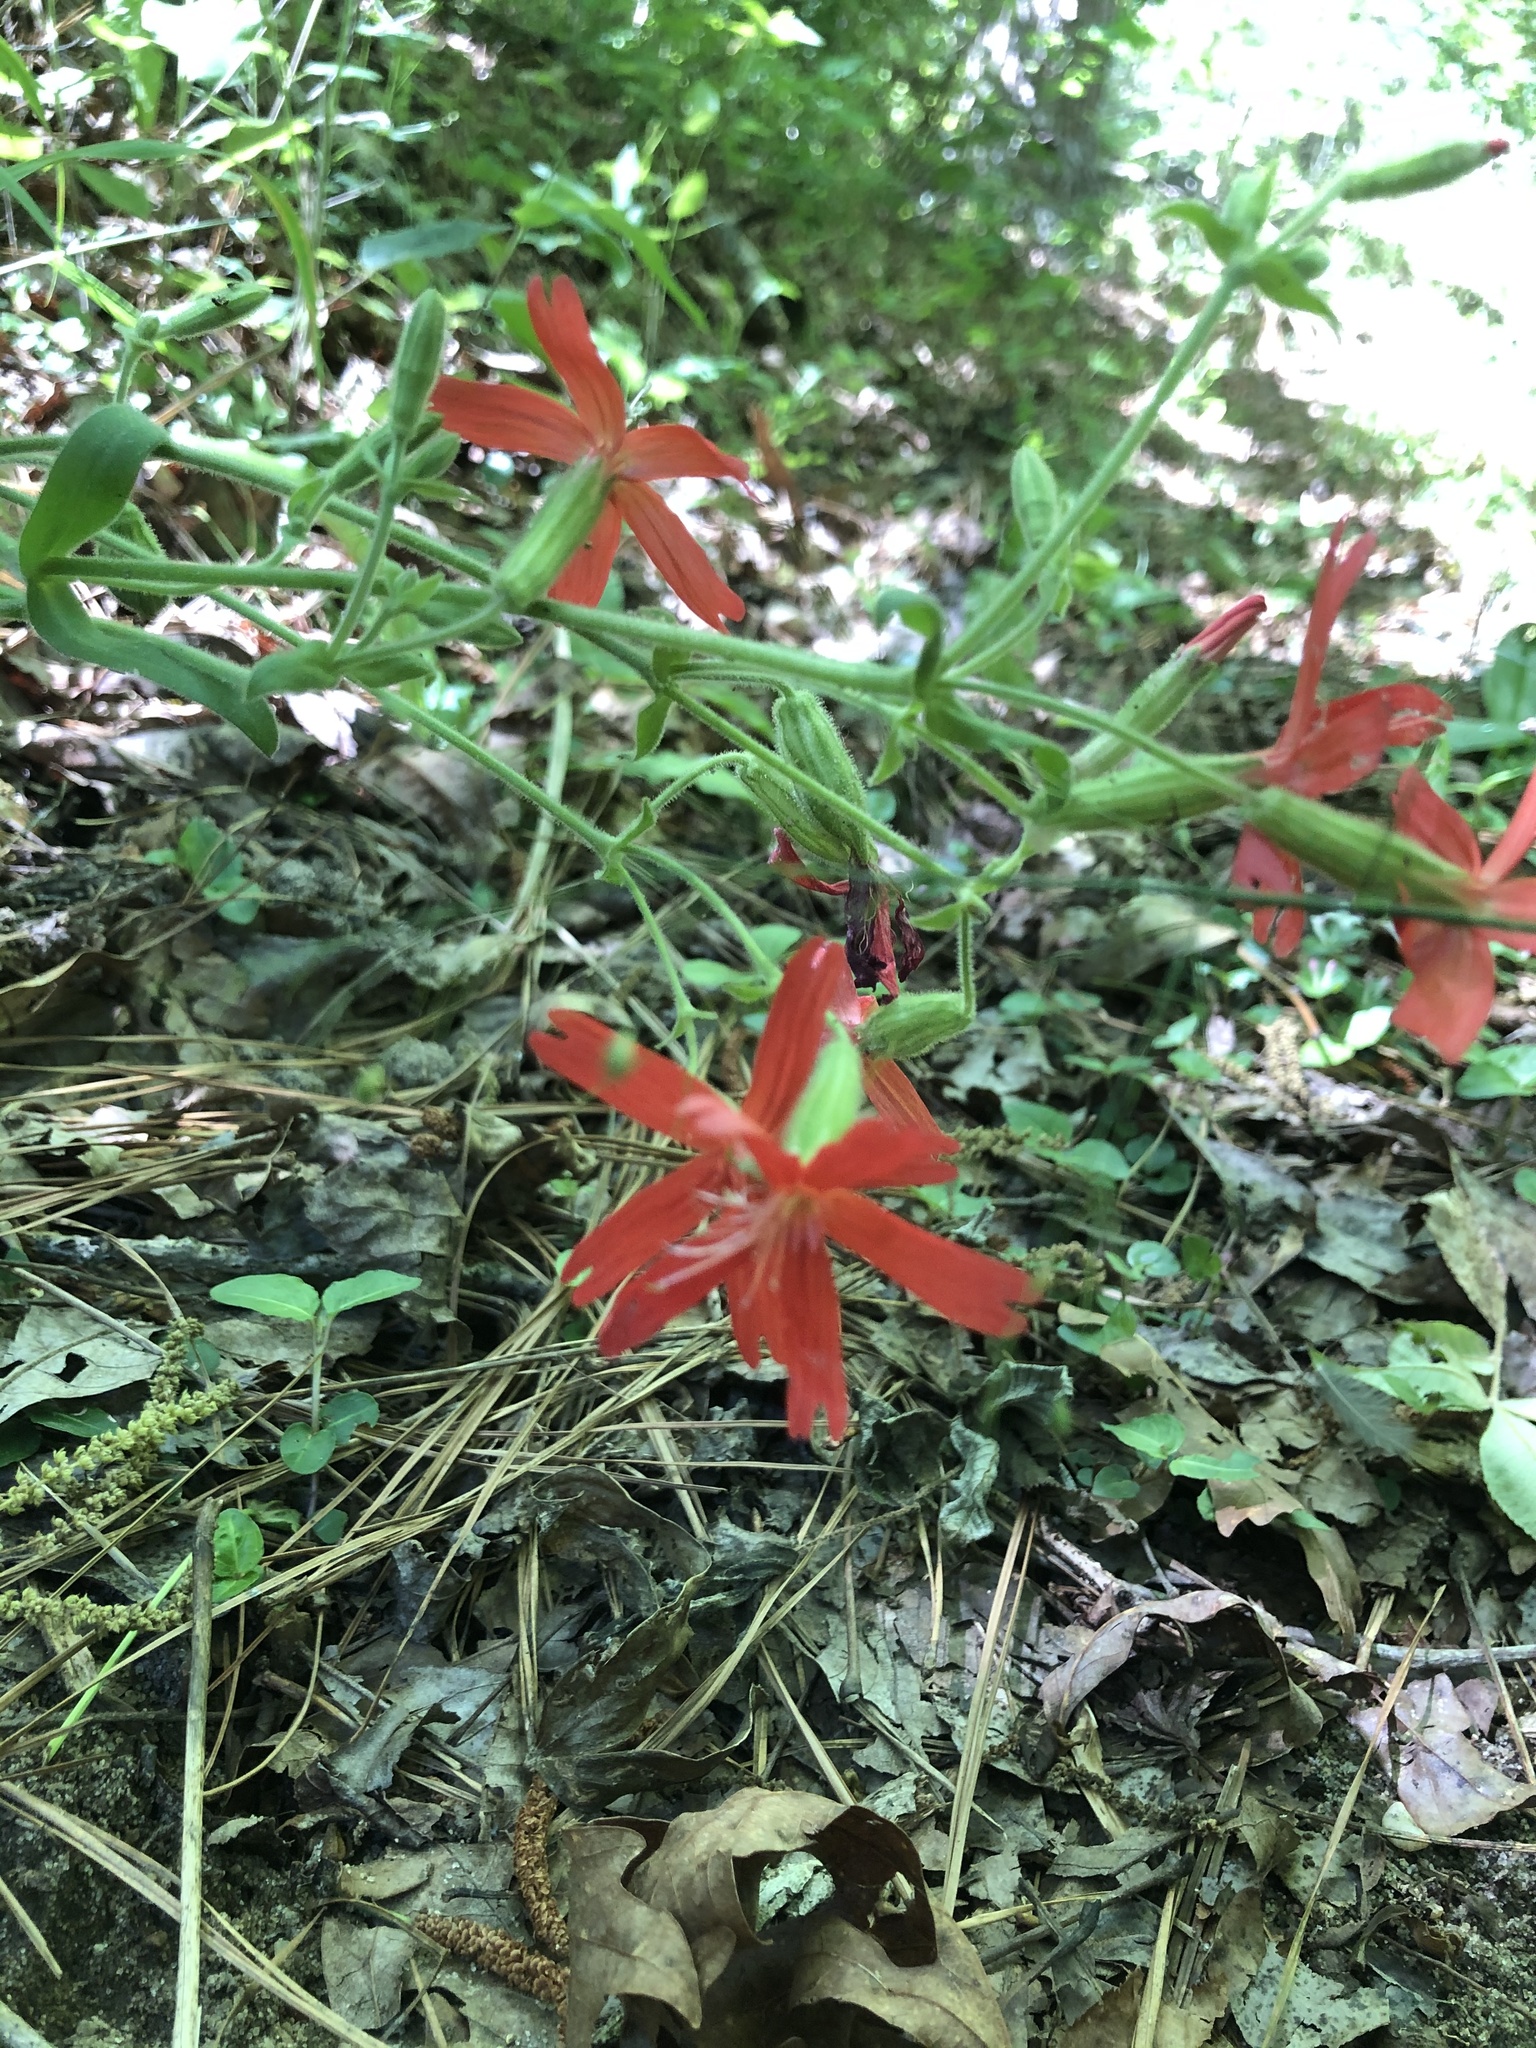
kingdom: Plantae
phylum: Tracheophyta
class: Magnoliopsida
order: Caryophyllales
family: Caryophyllaceae
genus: Silene
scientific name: Silene virginica
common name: Fire-pink
